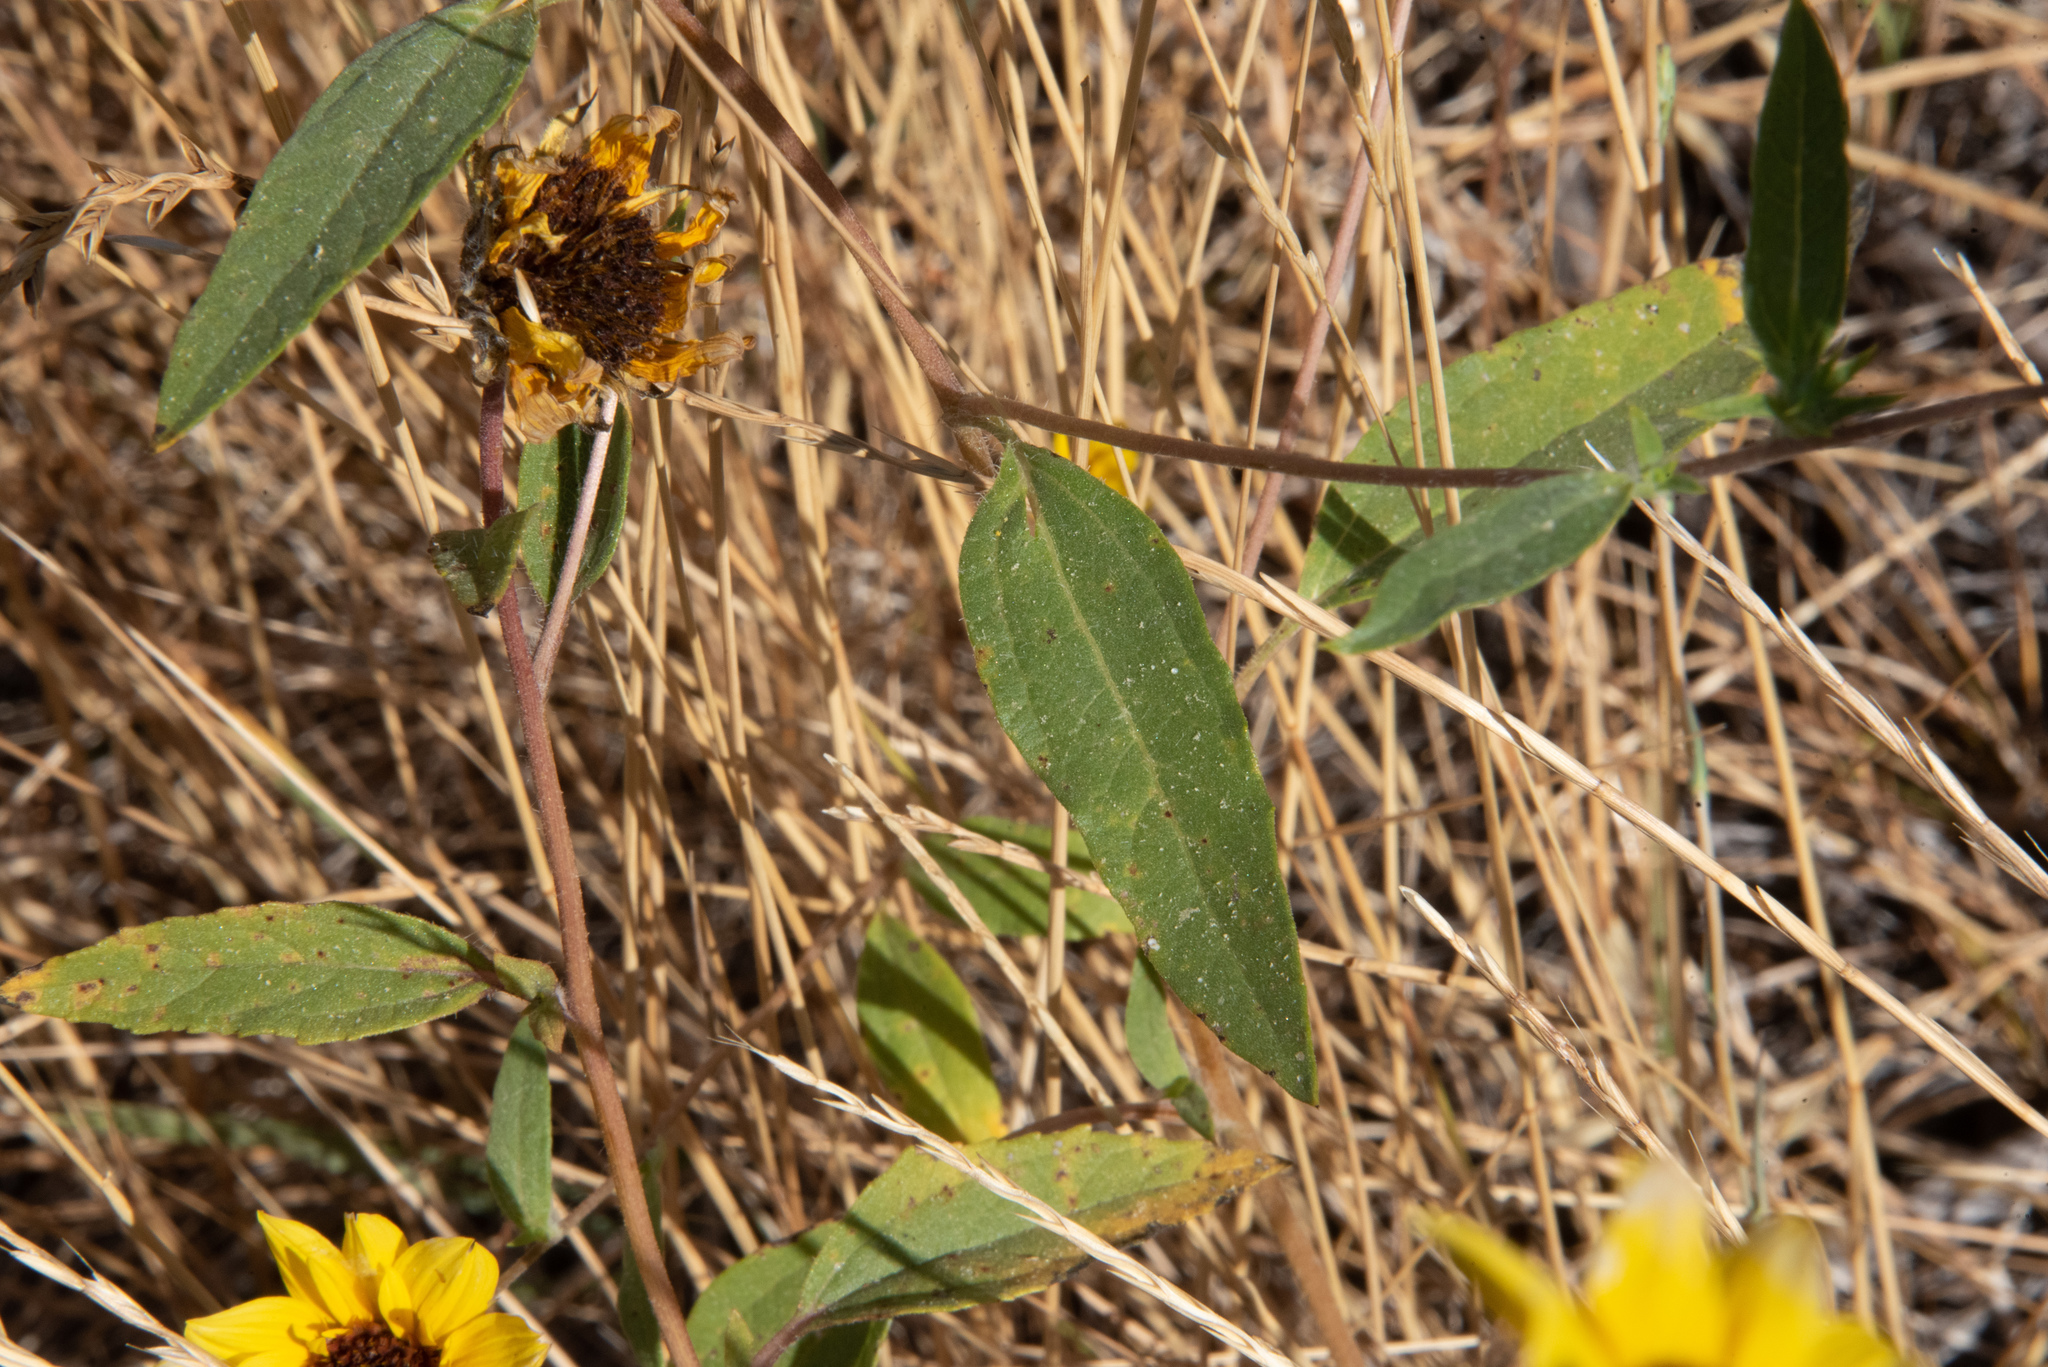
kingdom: Plantae
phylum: Tracheophyta
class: Magnoliopsida
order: Asterales
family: Asteraceae
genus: Helianthus
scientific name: Helianthus exilis
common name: Serpentine sunflower
